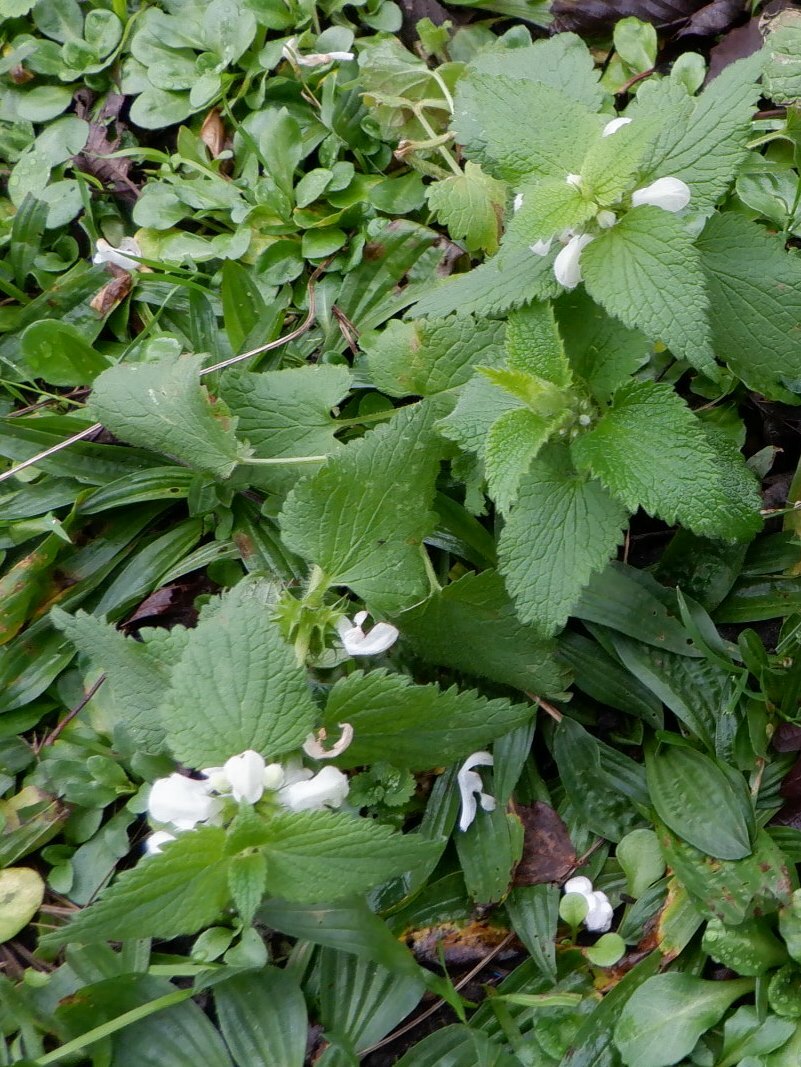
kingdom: Plantae
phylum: Tracheophyta
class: Magnoliopsida
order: Lamiales
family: Lamiaceae
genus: Lamium
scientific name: Lamium album
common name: White dead-nettle
